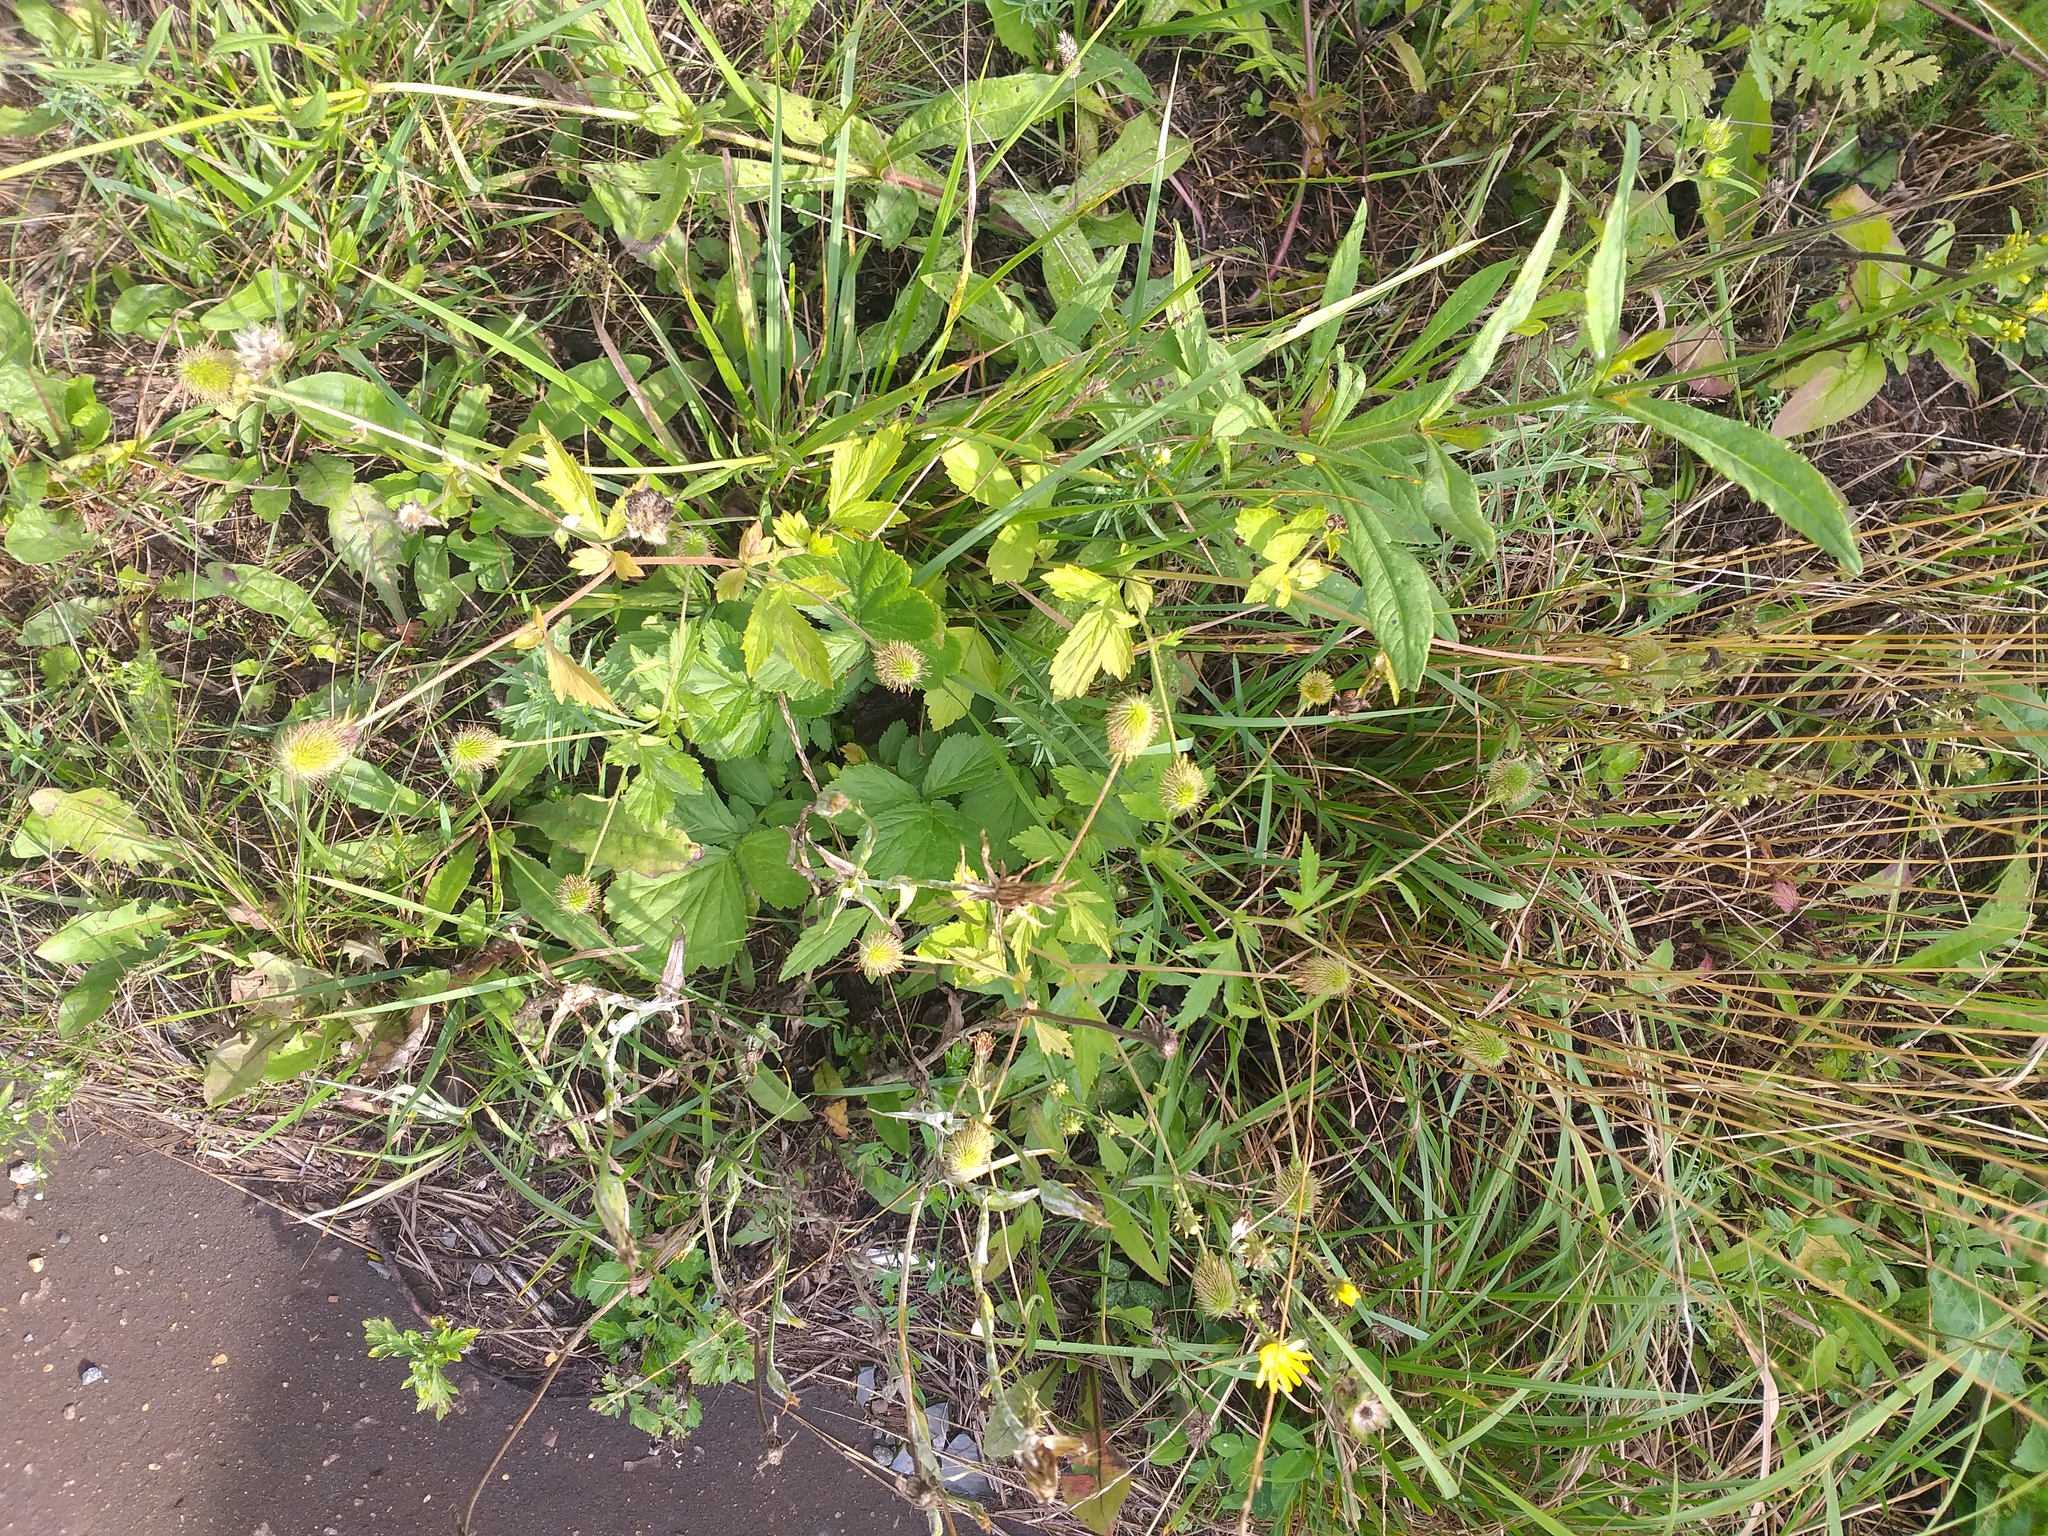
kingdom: Plantae
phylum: Tracheophyta
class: Magnoliopsida
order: Rosales
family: Rosaceae
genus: Geum
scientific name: Geum aleppicum
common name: Yellow avens
